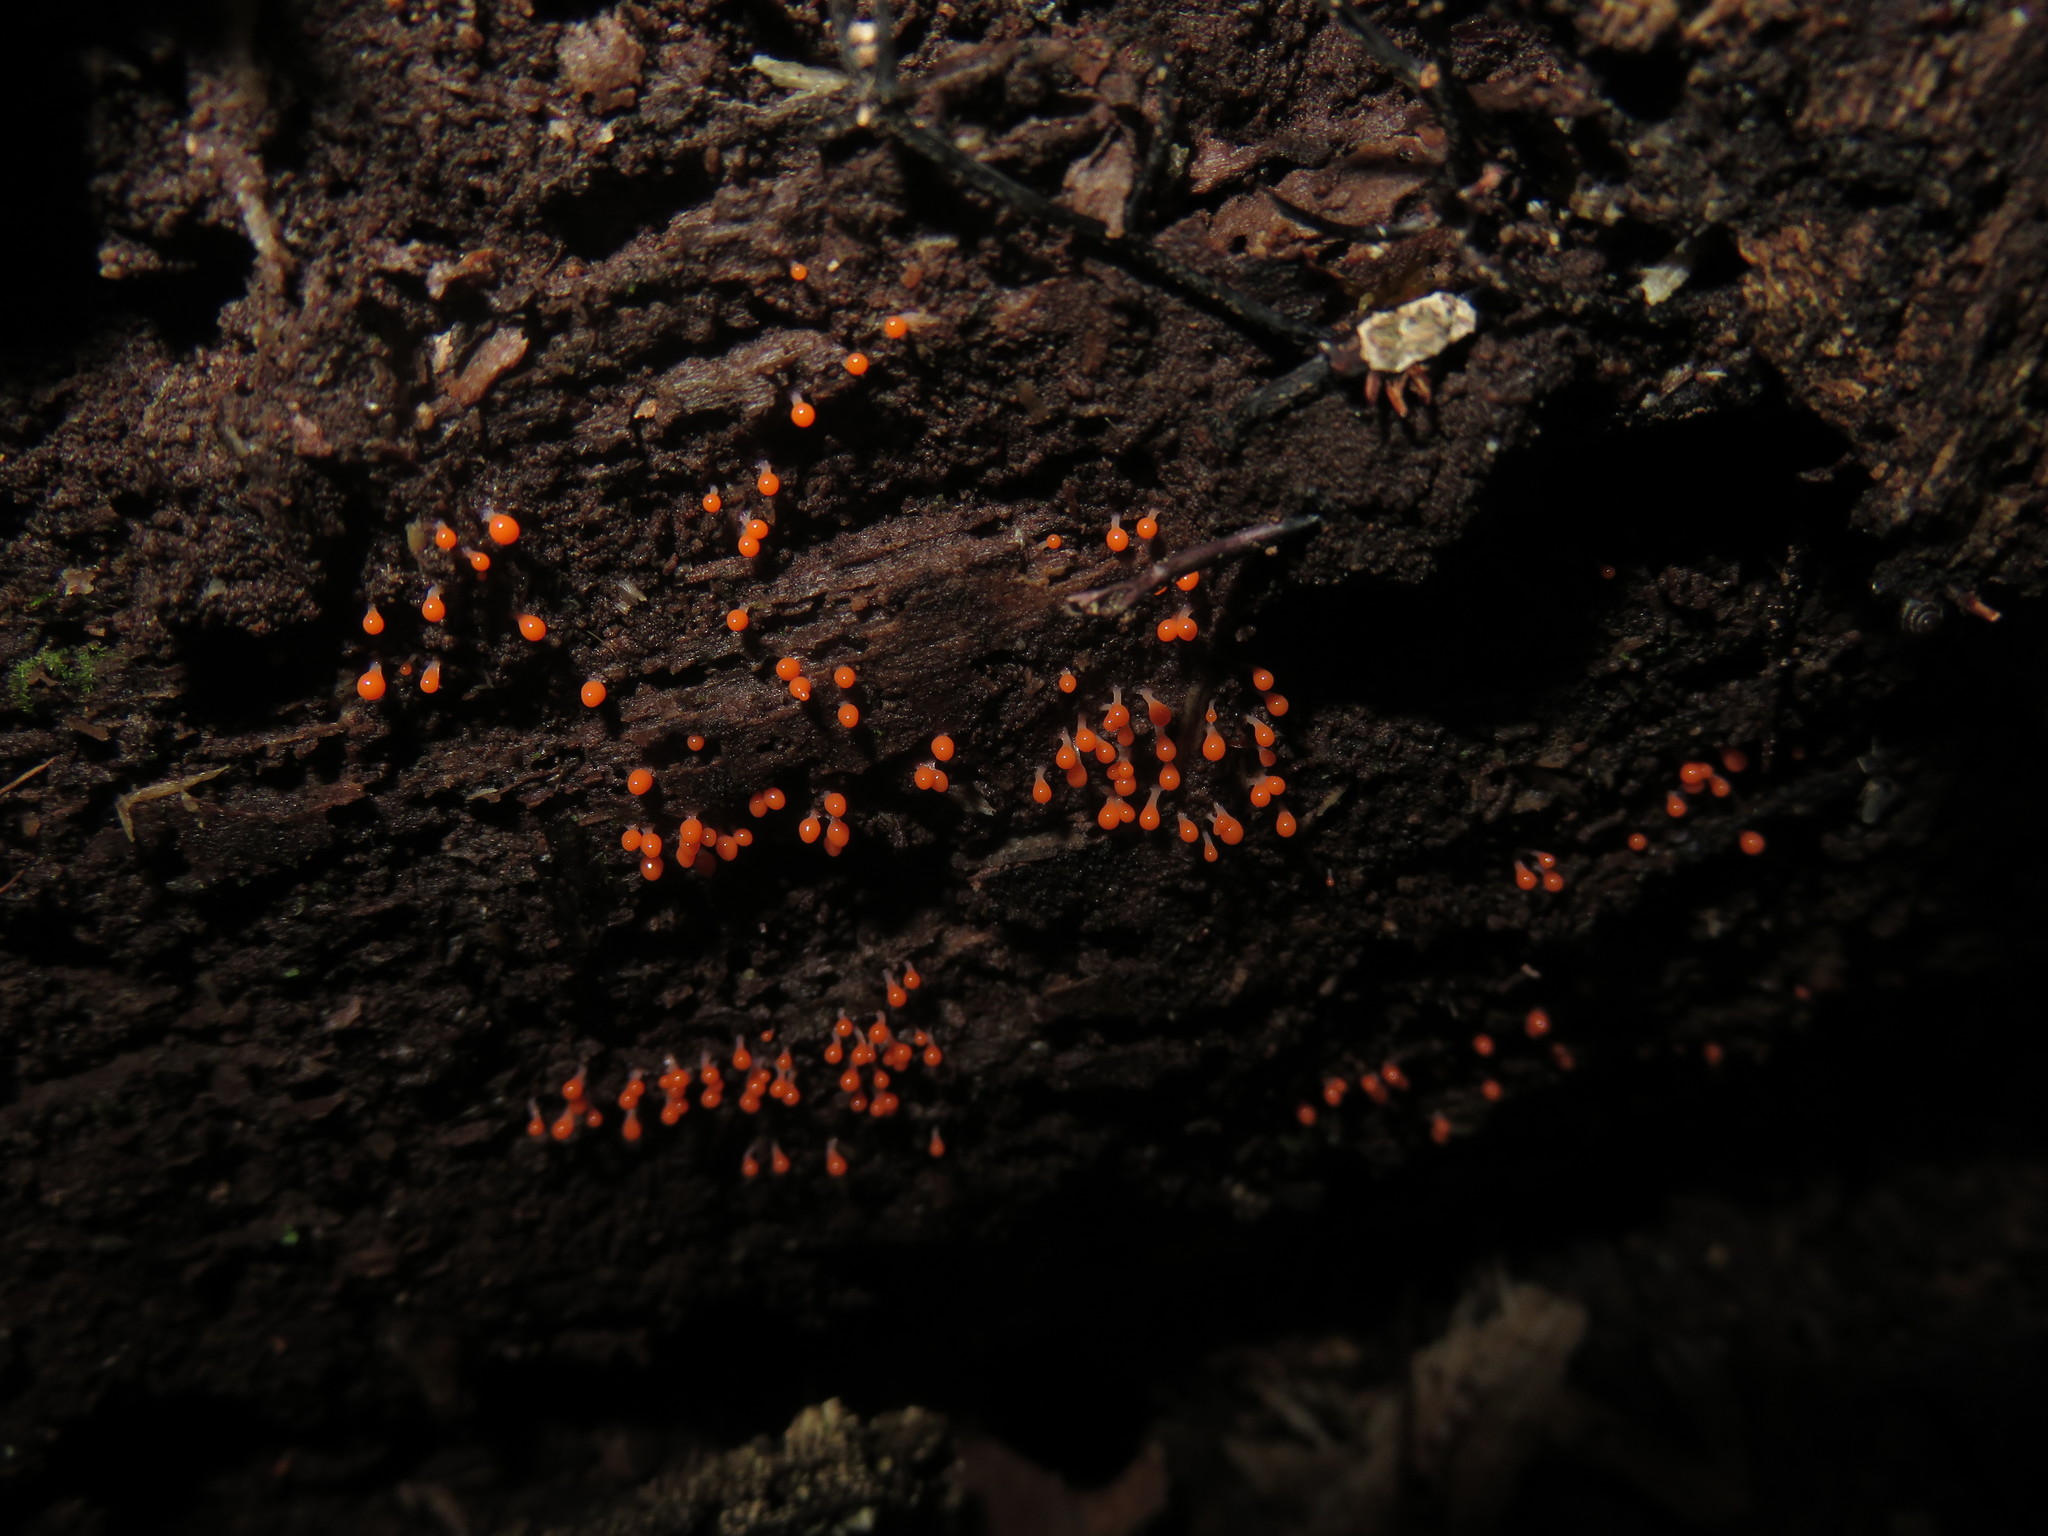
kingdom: Protozoa
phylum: Mycetozoa
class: Myxomycetes
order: Trichiales
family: Arcyriaceae
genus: Hemitrichia
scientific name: Hemitrichia decipiens
